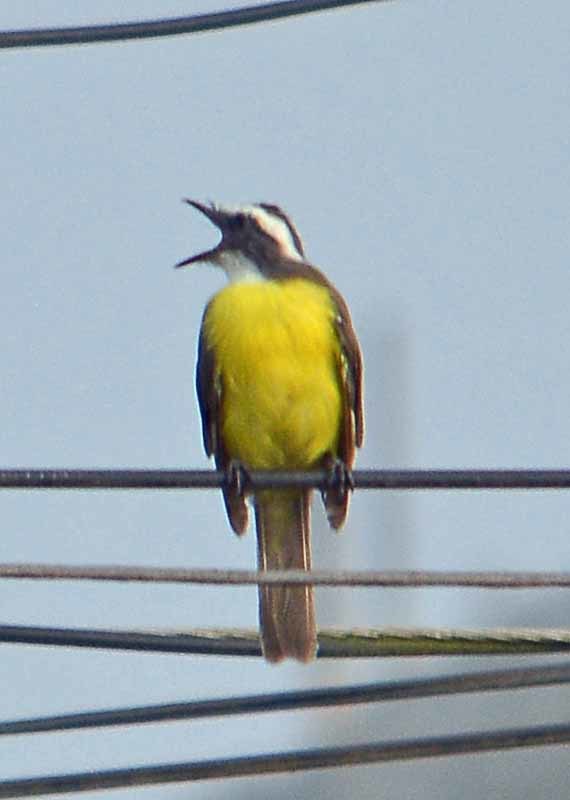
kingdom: Animalia
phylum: Chordata
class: Aves
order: Passeriformes
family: Tyrannidae
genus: Myiozetetes
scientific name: Myiozetetes similis
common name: Social flycatcher
